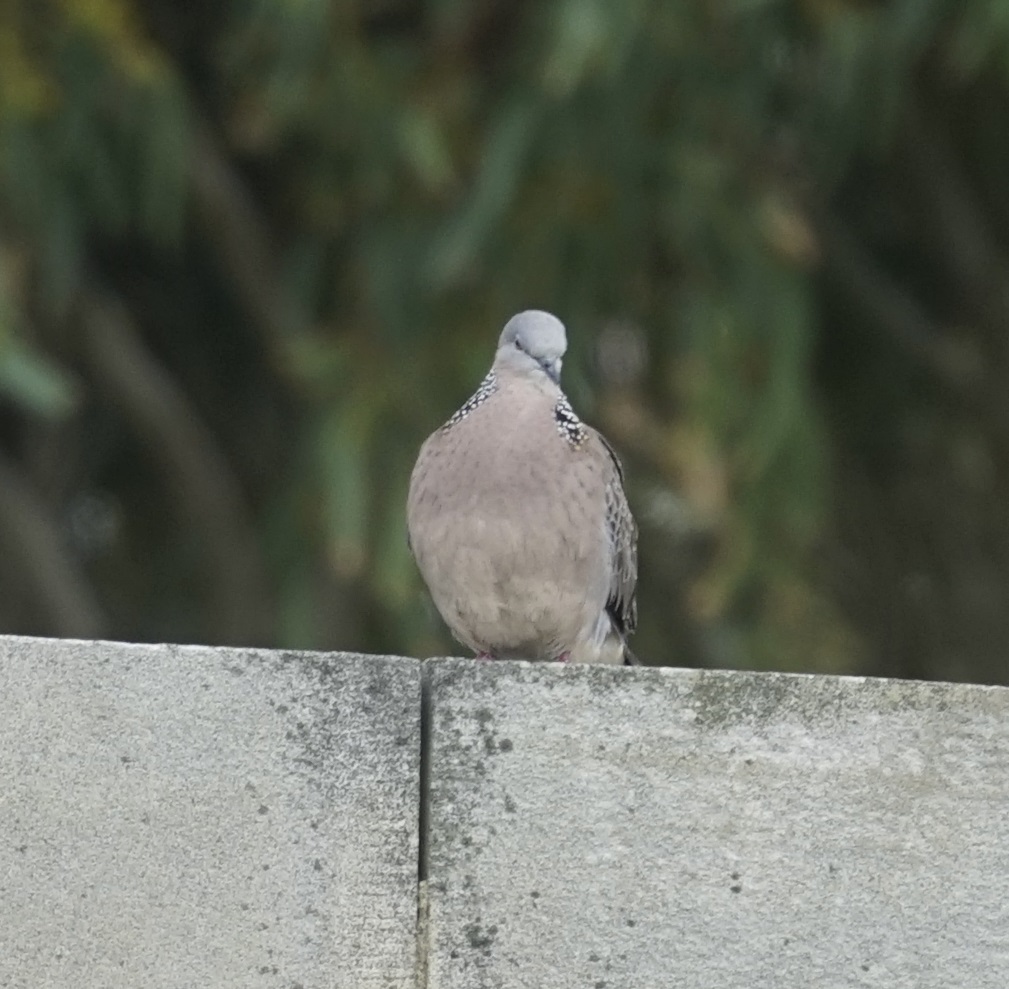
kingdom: Animalia
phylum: Chordata
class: Aves
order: Columbiformes
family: Columbidae
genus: Spilopelia
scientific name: Spilopelia chinensis
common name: Spotted dove
